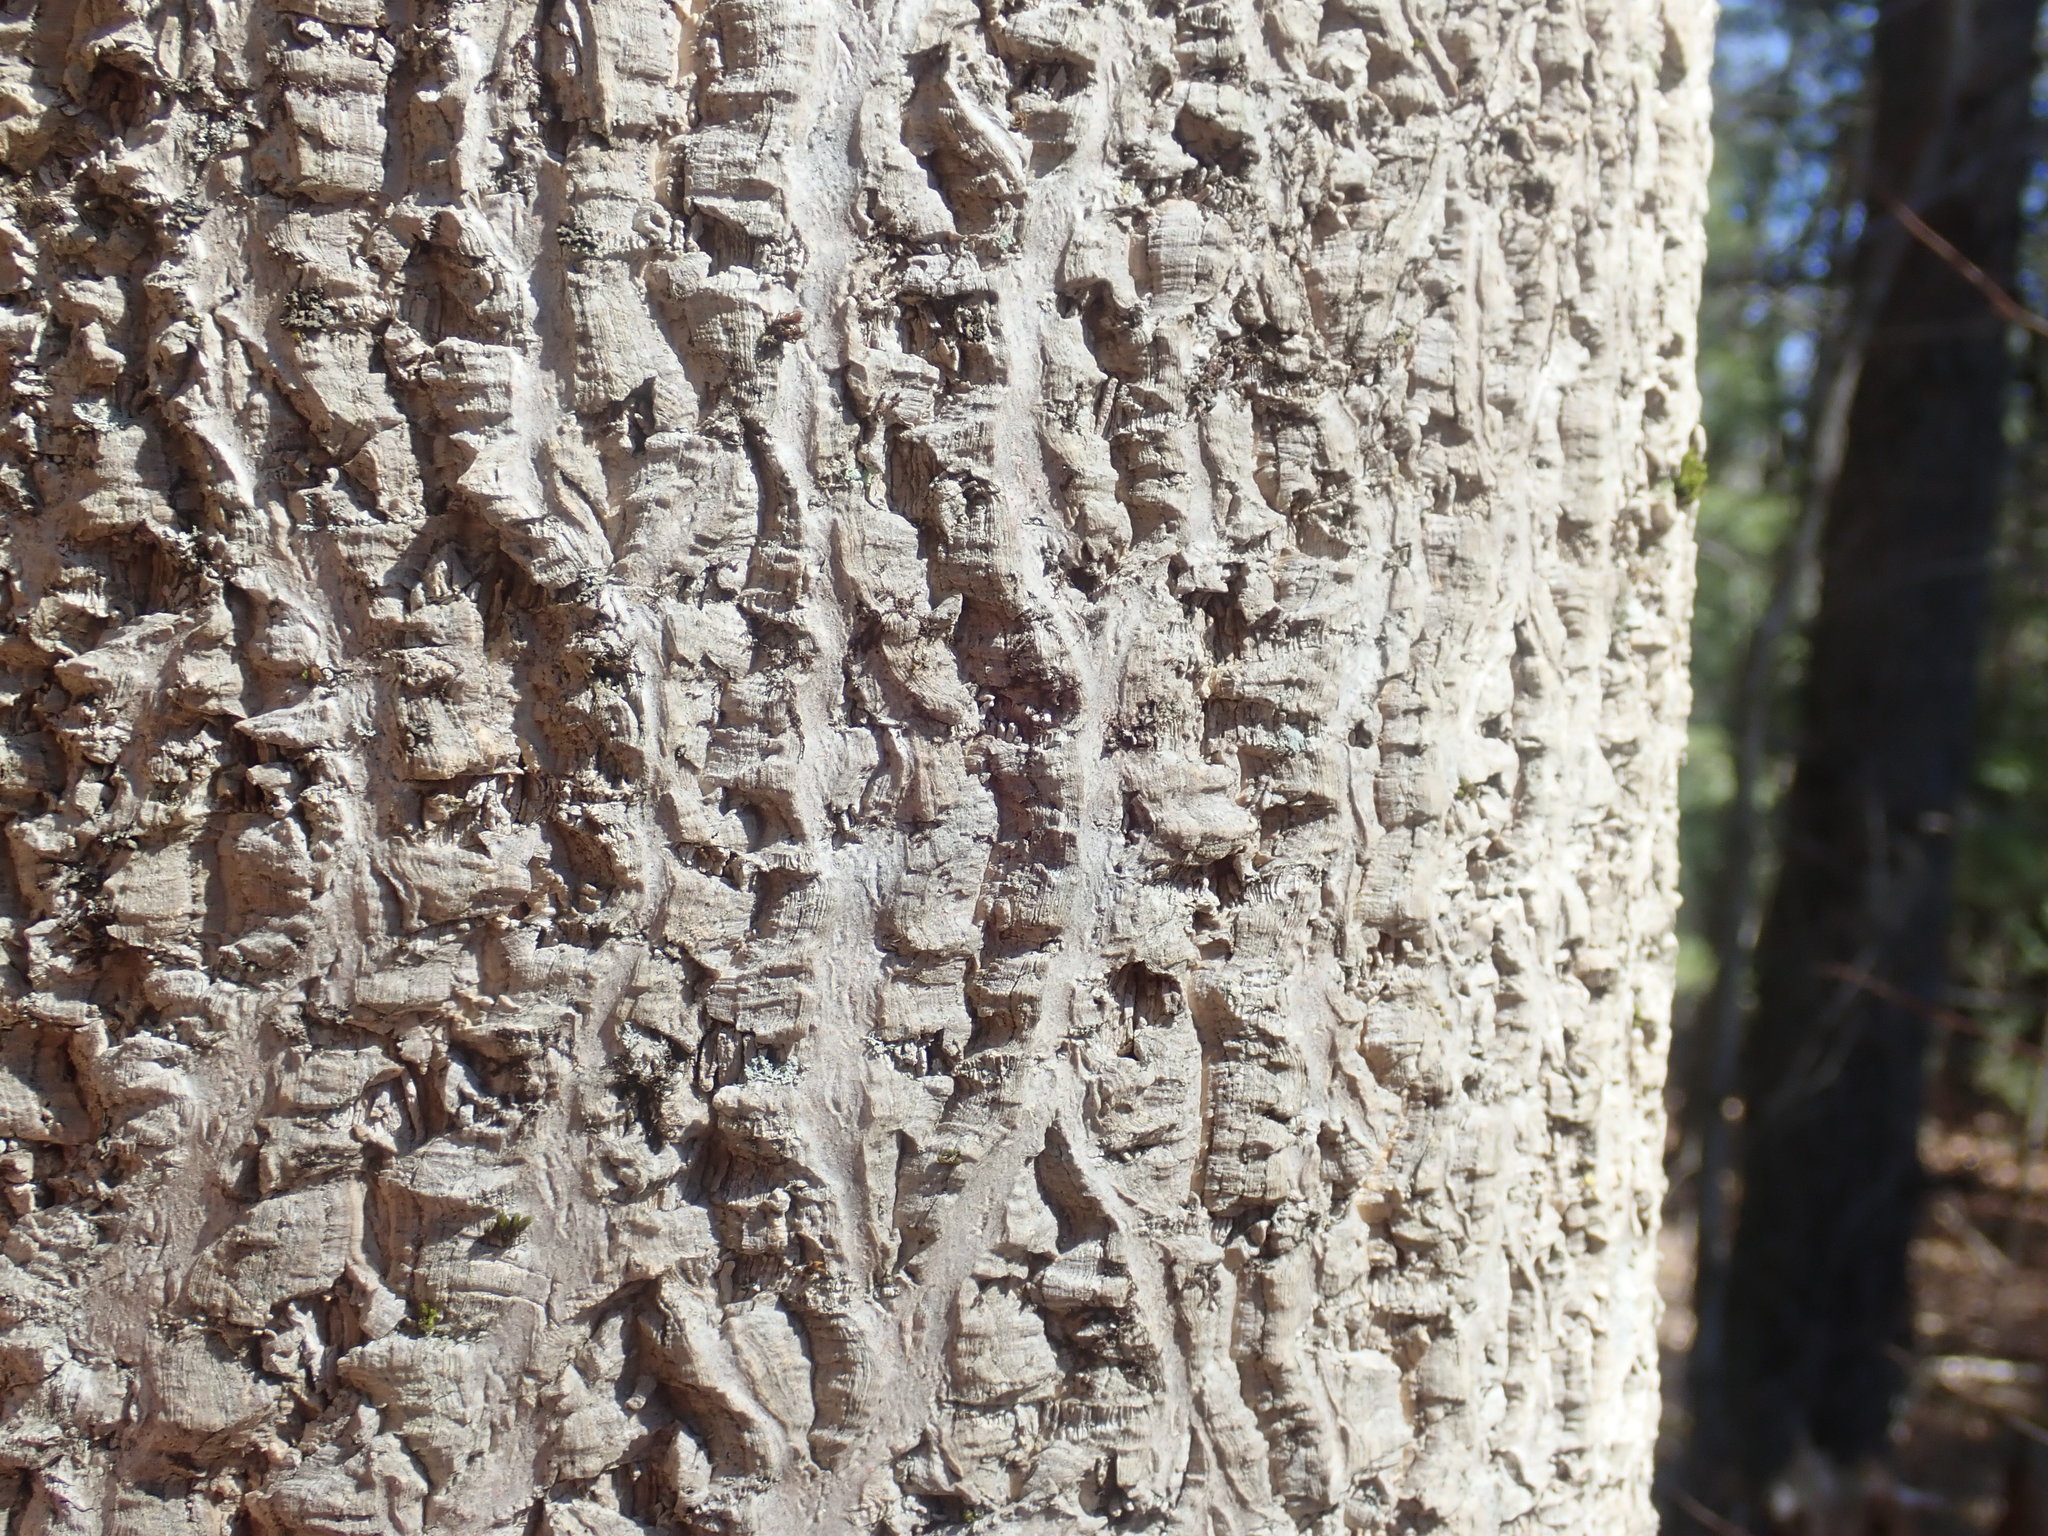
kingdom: Plantae
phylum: Tracheophyta
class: Magnoliopsida
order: Sapindales
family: Rutaceae
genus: Phellodendron
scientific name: Phellodendron amurense
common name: Amur corktree
